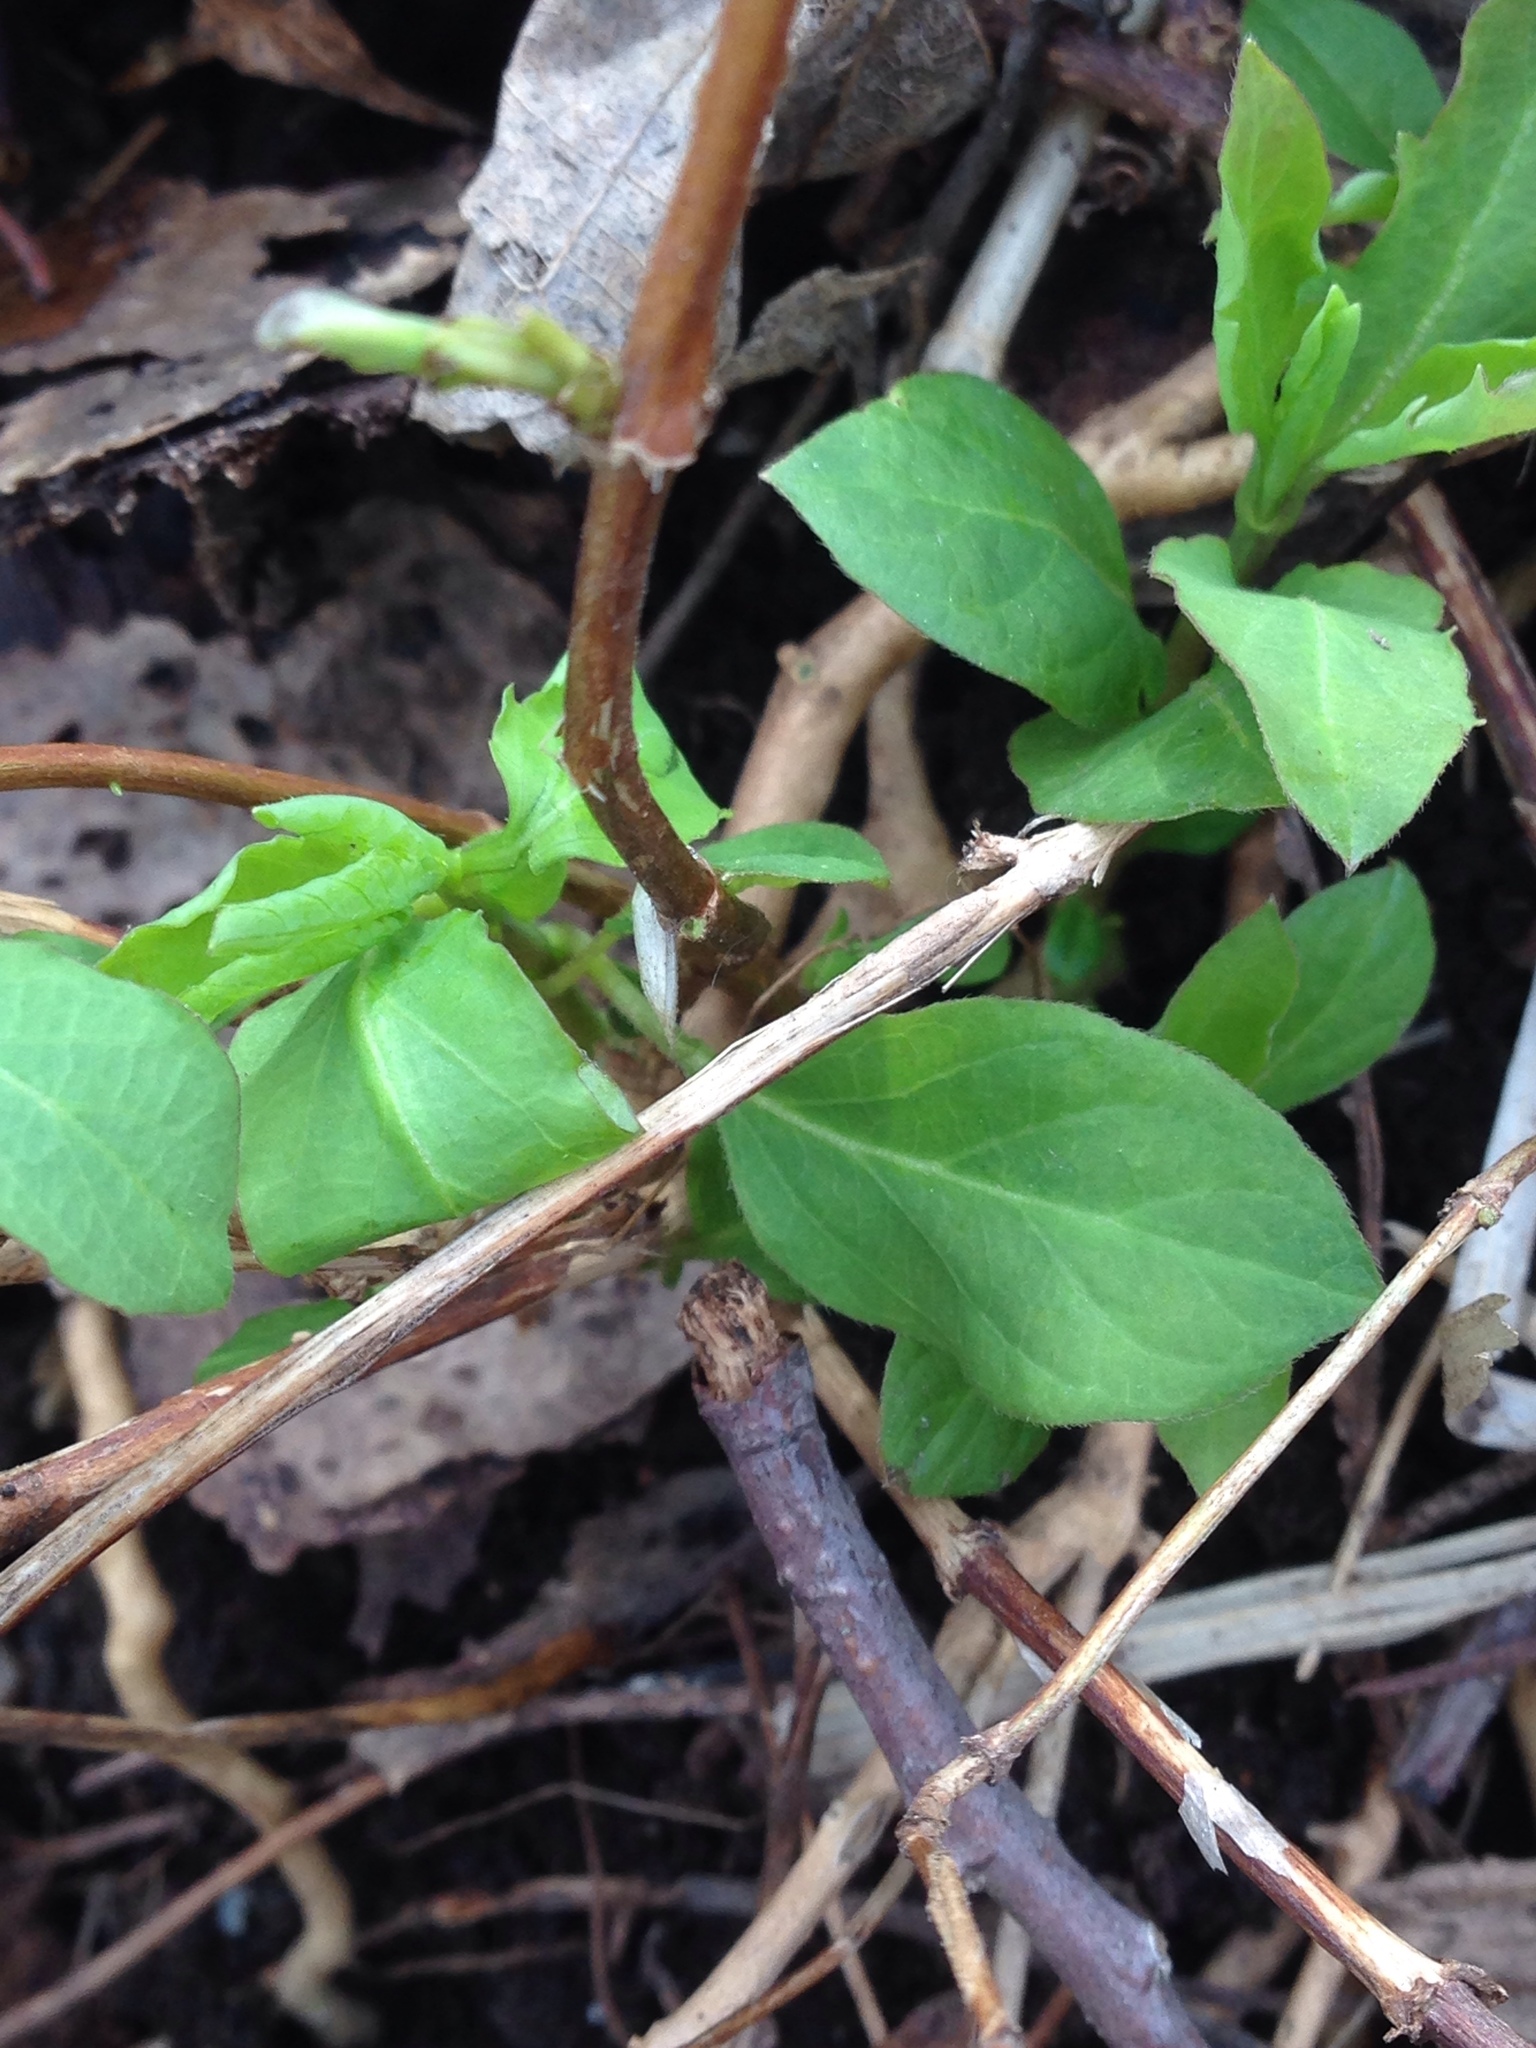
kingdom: Plantae
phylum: Tracheophyta
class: Magnoliopsida
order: Dipsacales
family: Caprifoliaceae
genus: Lonicera
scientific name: Lonicera japonica
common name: Japanese honeysuckle
